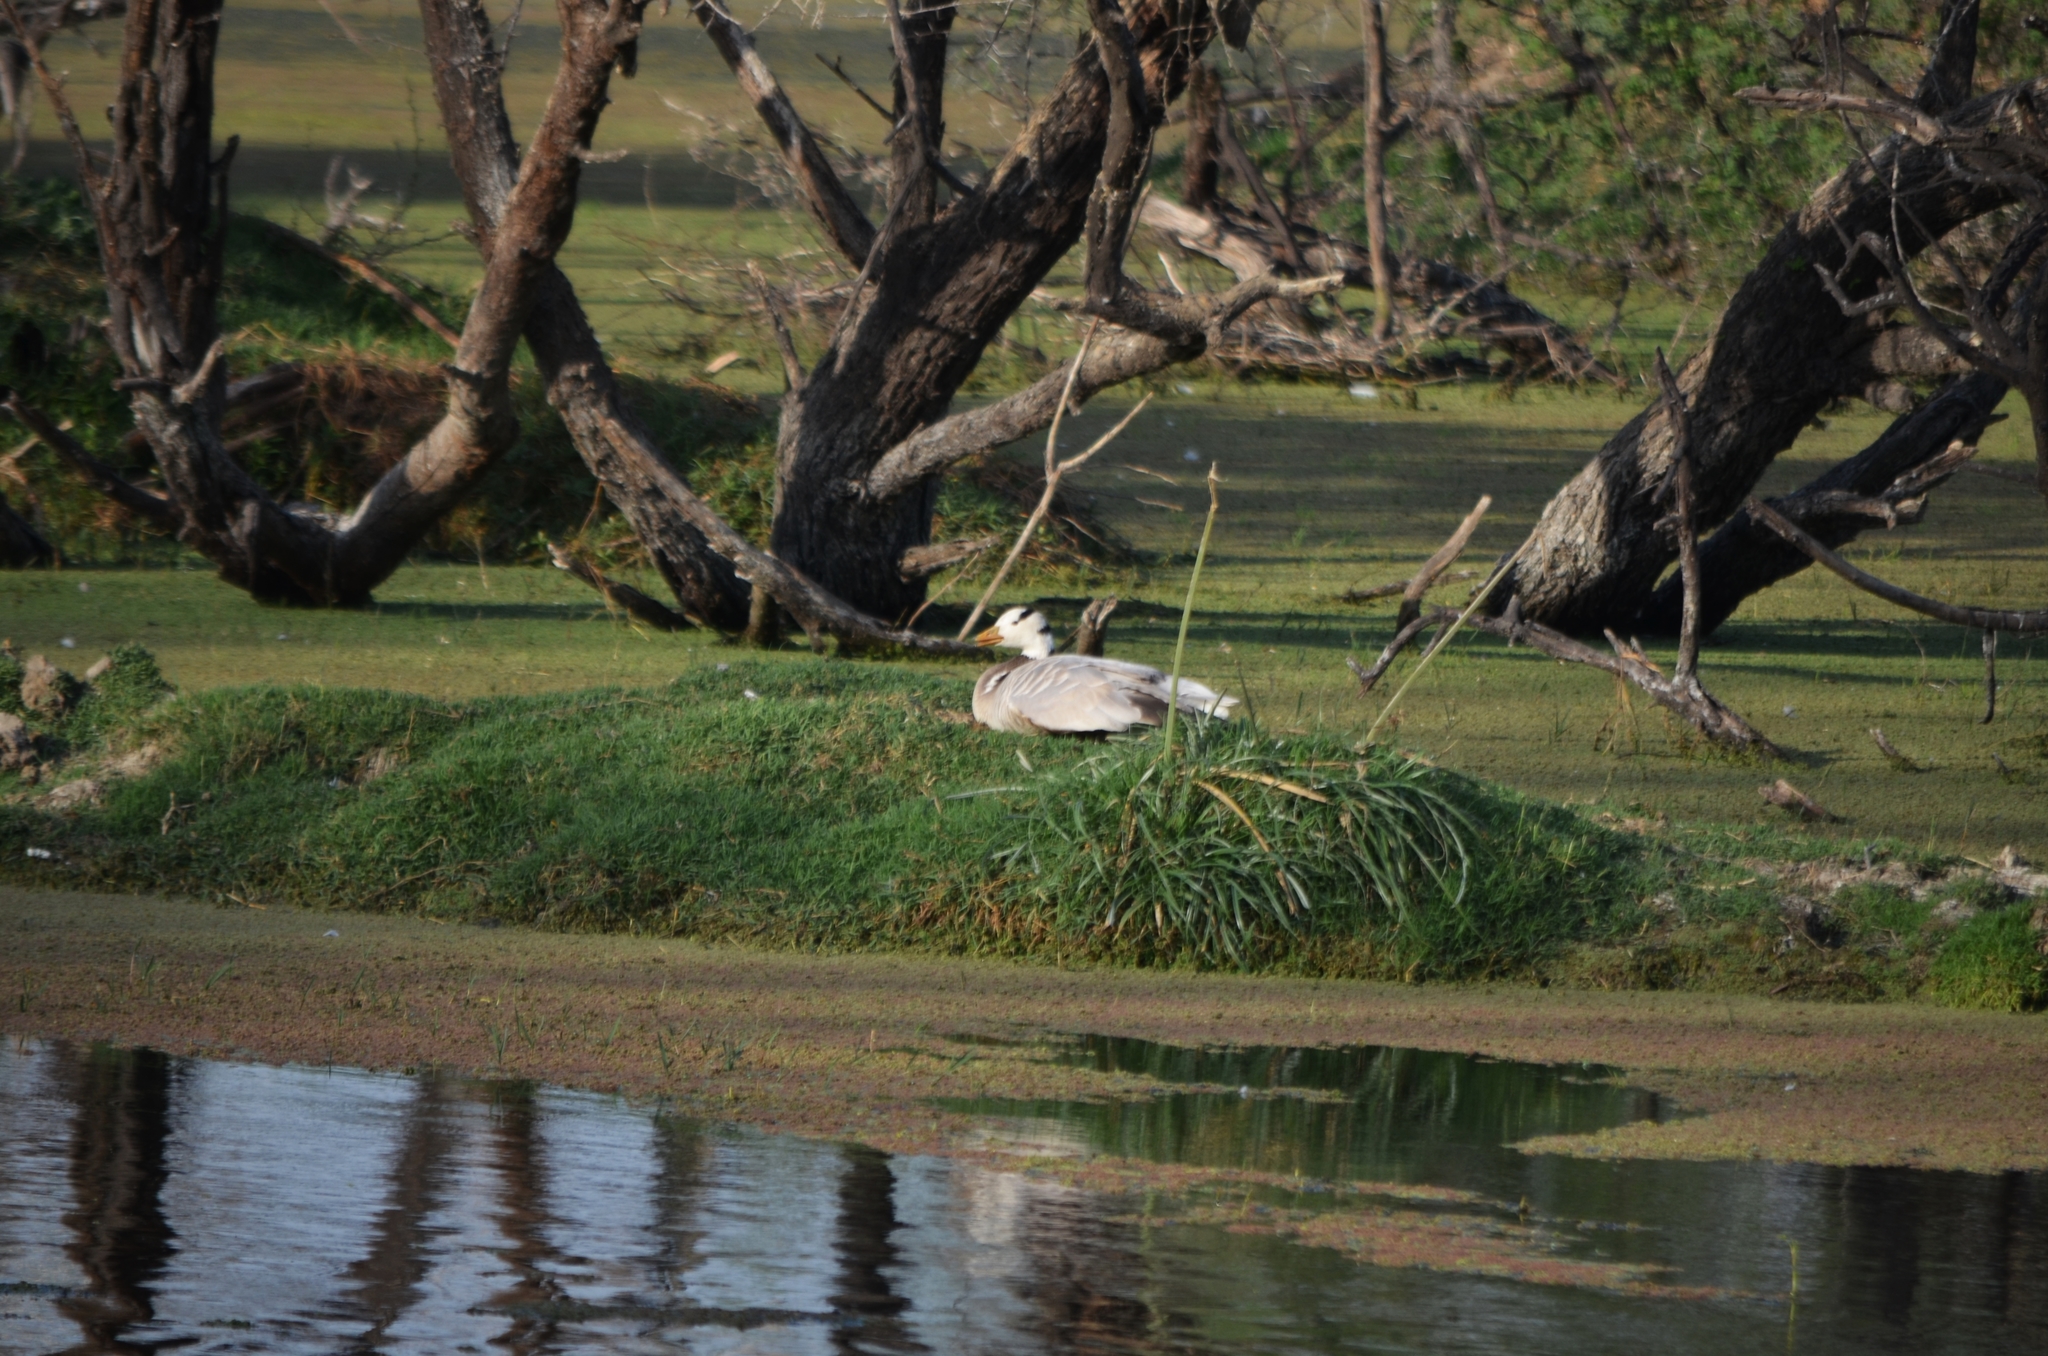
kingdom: Animalia
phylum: Chordata
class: Aves
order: Anseriformes
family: Anatidae
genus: Anser
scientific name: Anser indicus
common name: Bar-headed goose
